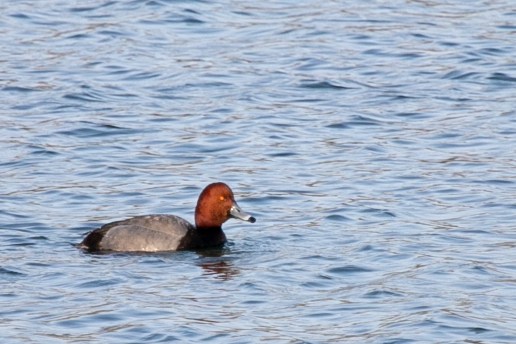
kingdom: Animalia
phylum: Chordata
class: Aves
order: Anseriformes
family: Anatidae
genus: Aythya
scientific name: Aythya americana
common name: Redhead
